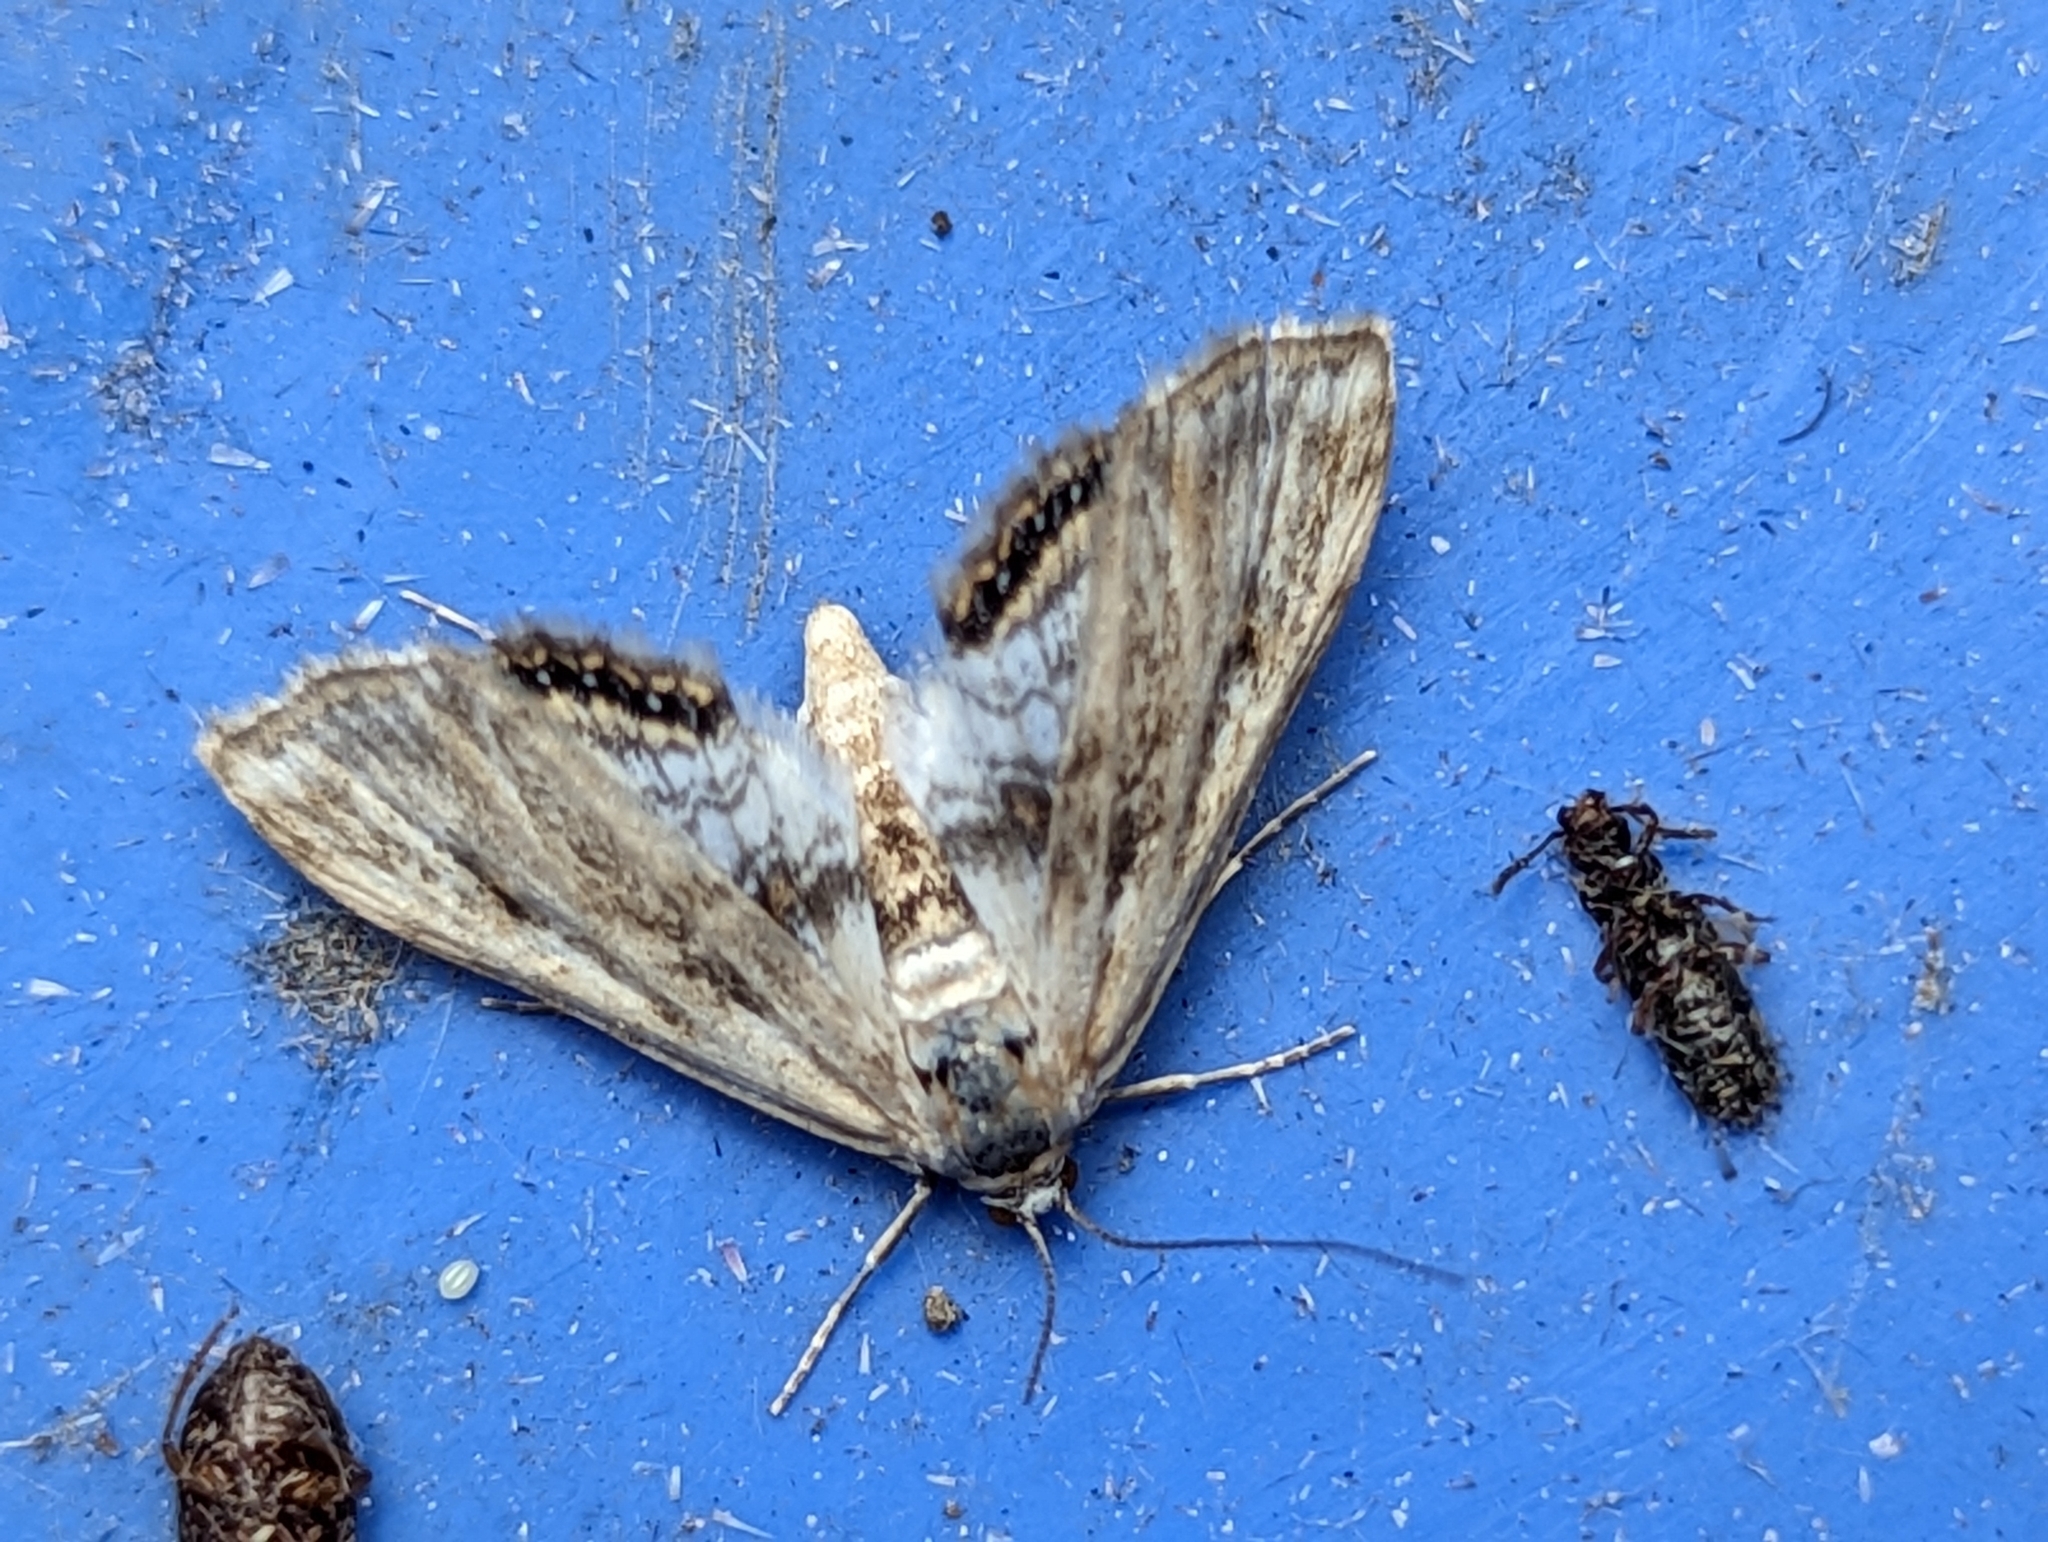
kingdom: Animalia
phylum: Arthropoda
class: Insecta
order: Lepidoptera
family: Crambidae
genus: Cataclysta
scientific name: Cataclysta lemnata
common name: Small china-mark
